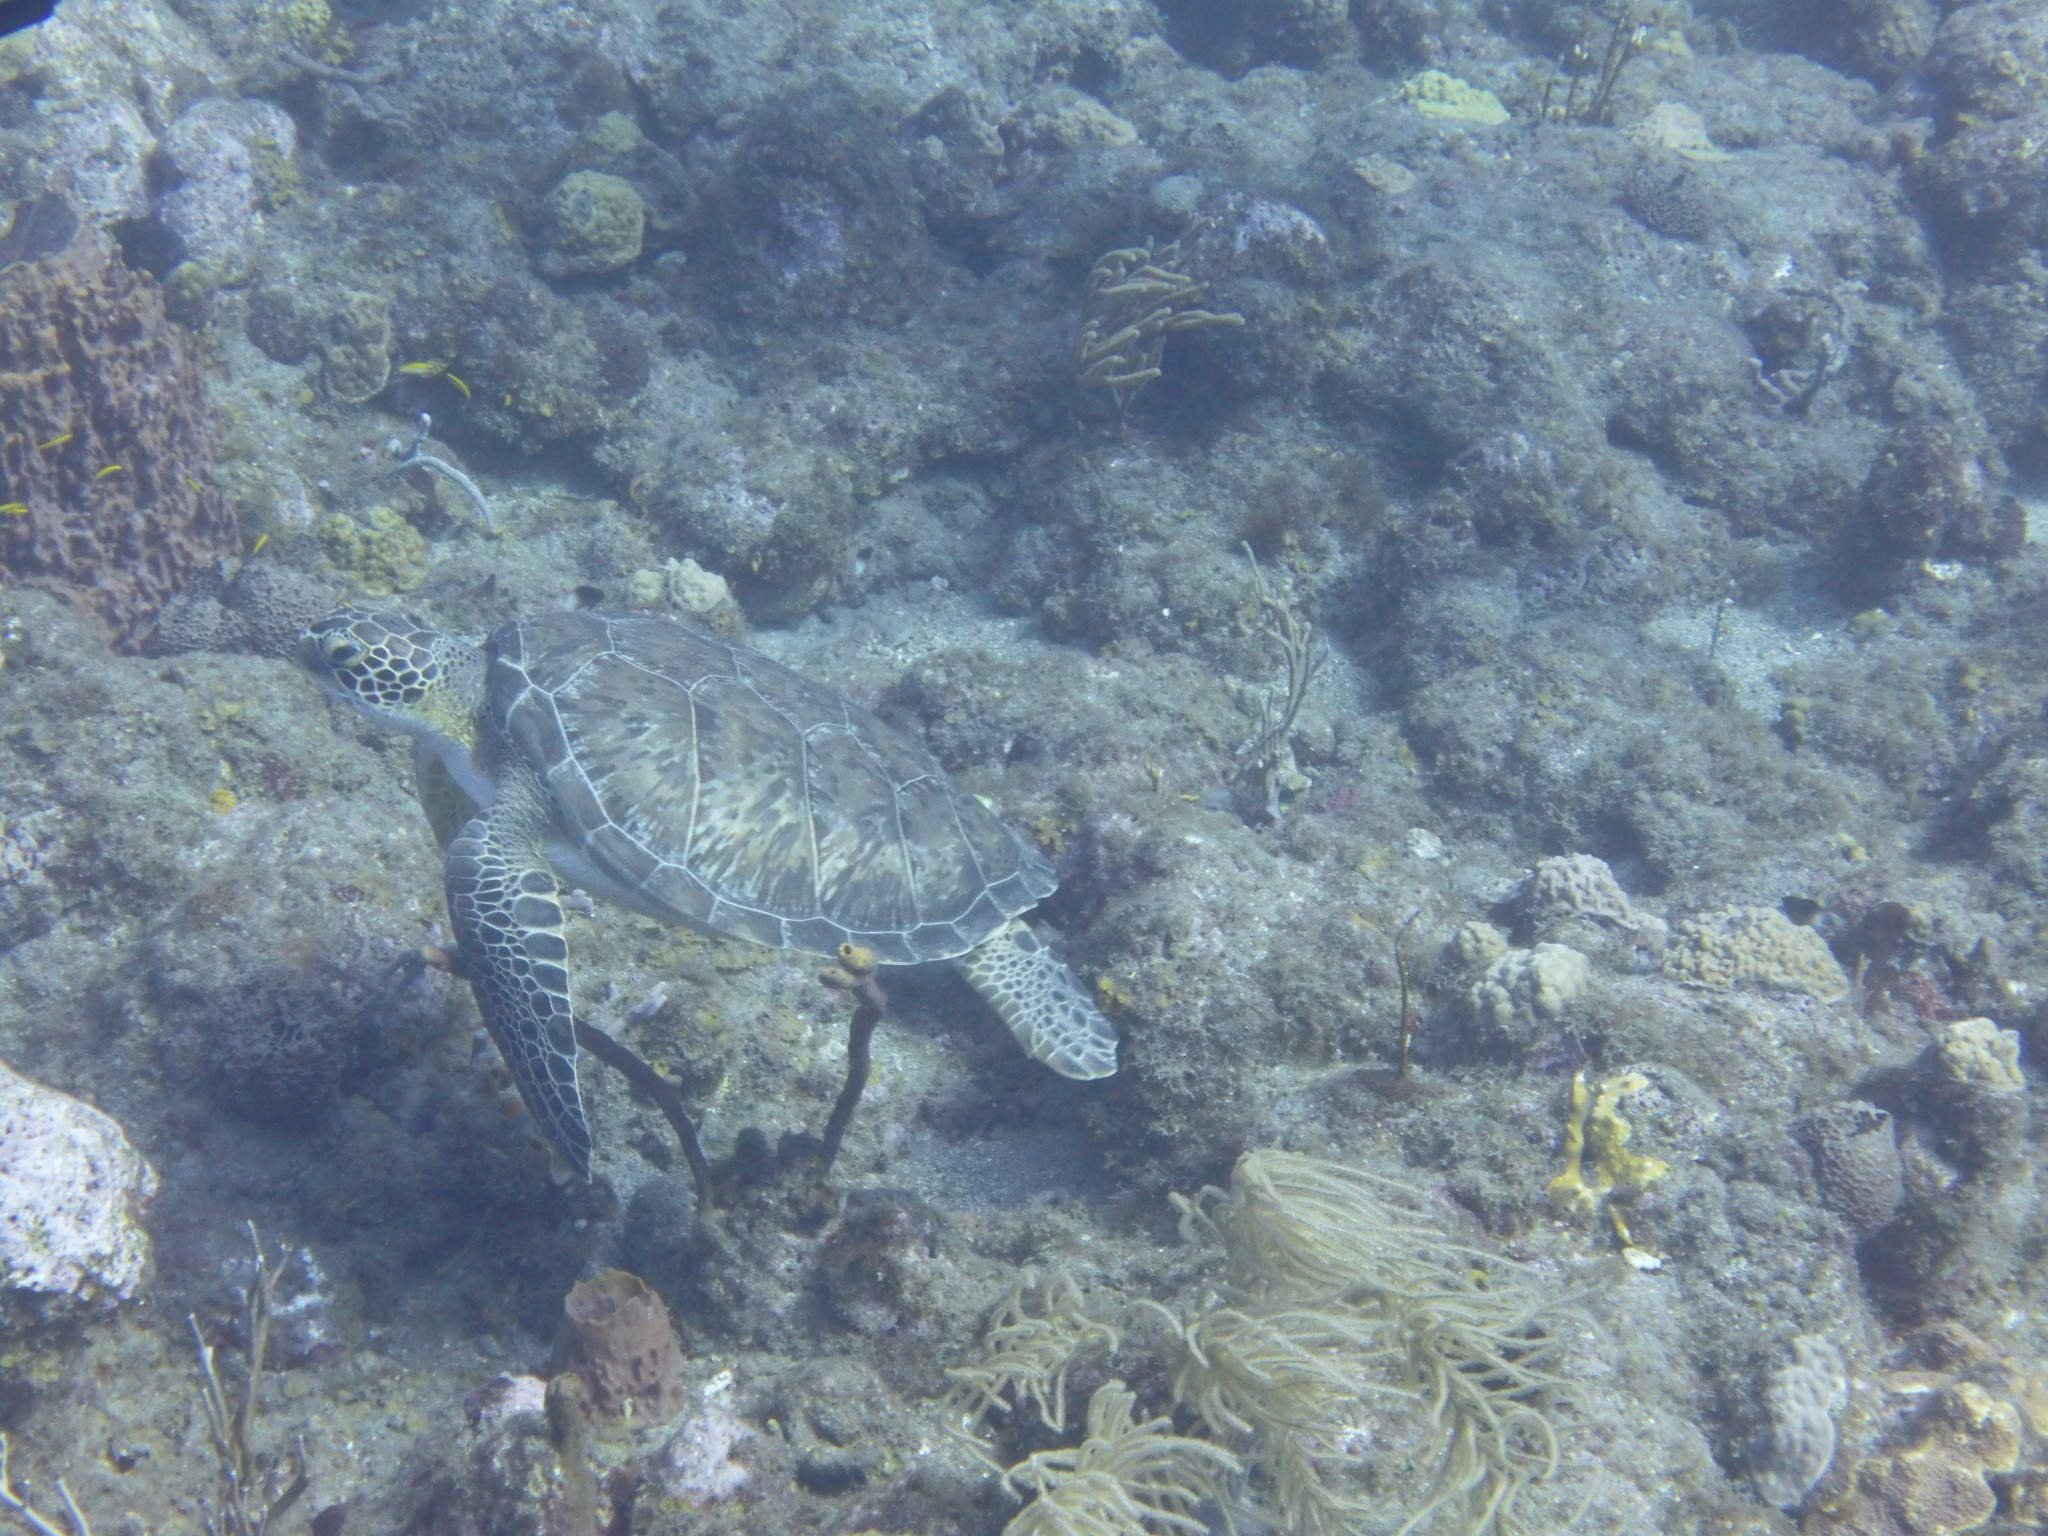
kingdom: Animalia
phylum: Chordata
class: Testudines
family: Cheloniidae
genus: Chelonia
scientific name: Chelonia mydas
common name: Green turtle
